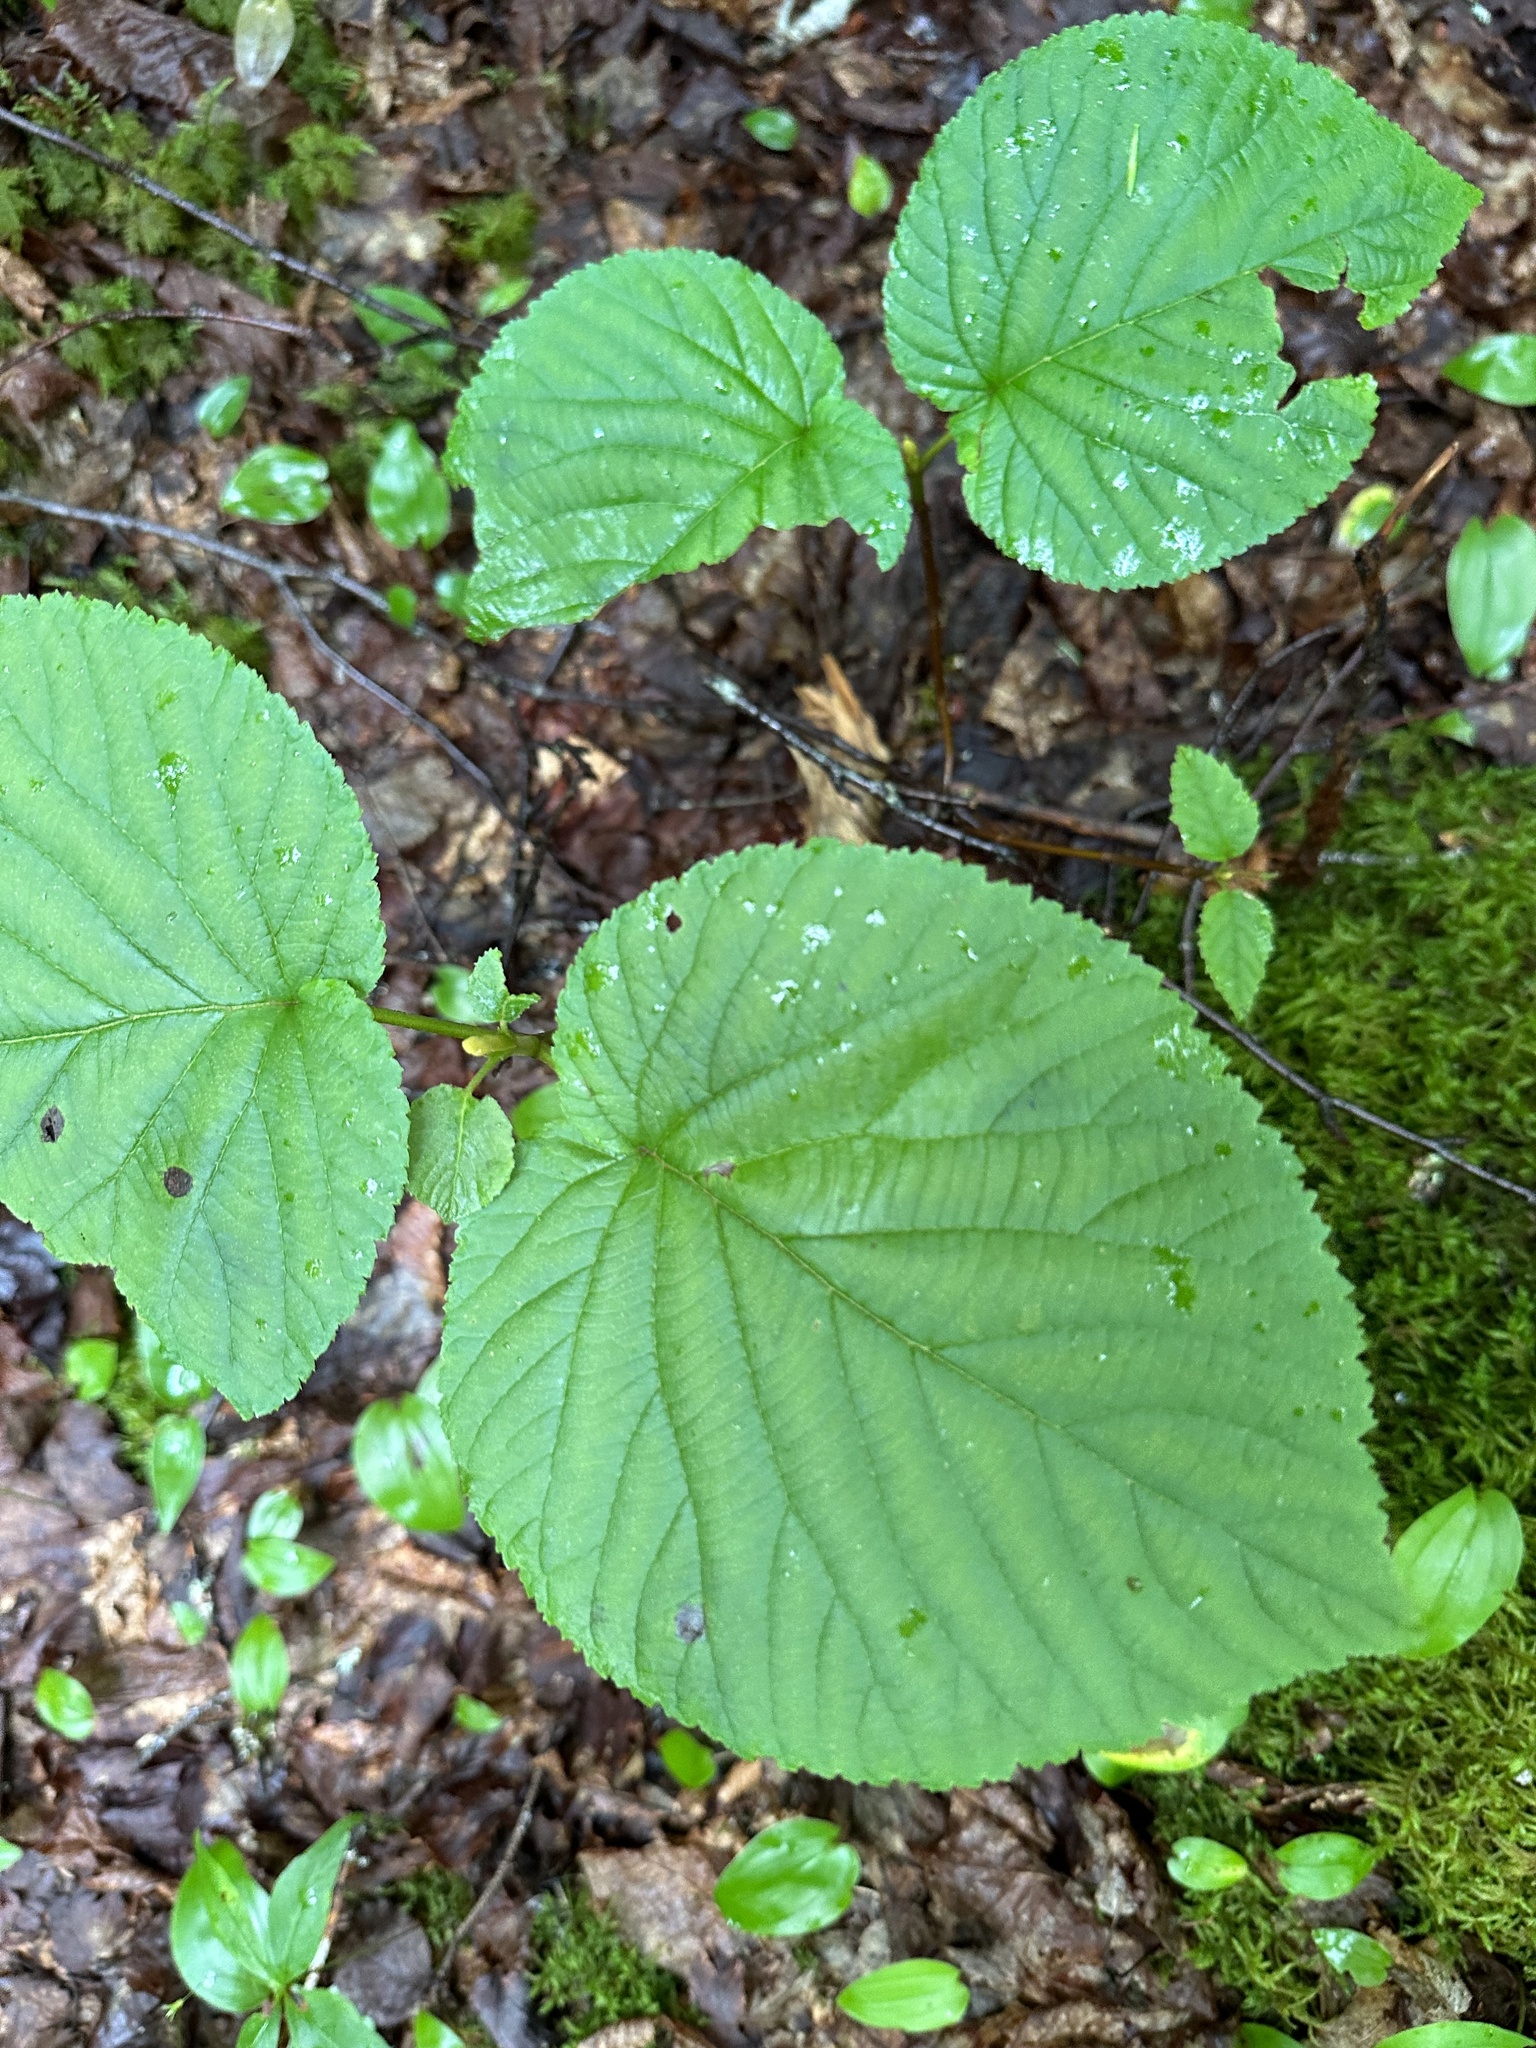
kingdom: Plantae
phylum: Tracheophyta
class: Magnoliopsida
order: Dipsacales
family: Viburnaceae
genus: Viburnum
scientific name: Viburnum lantanoides
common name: Hobblebush
